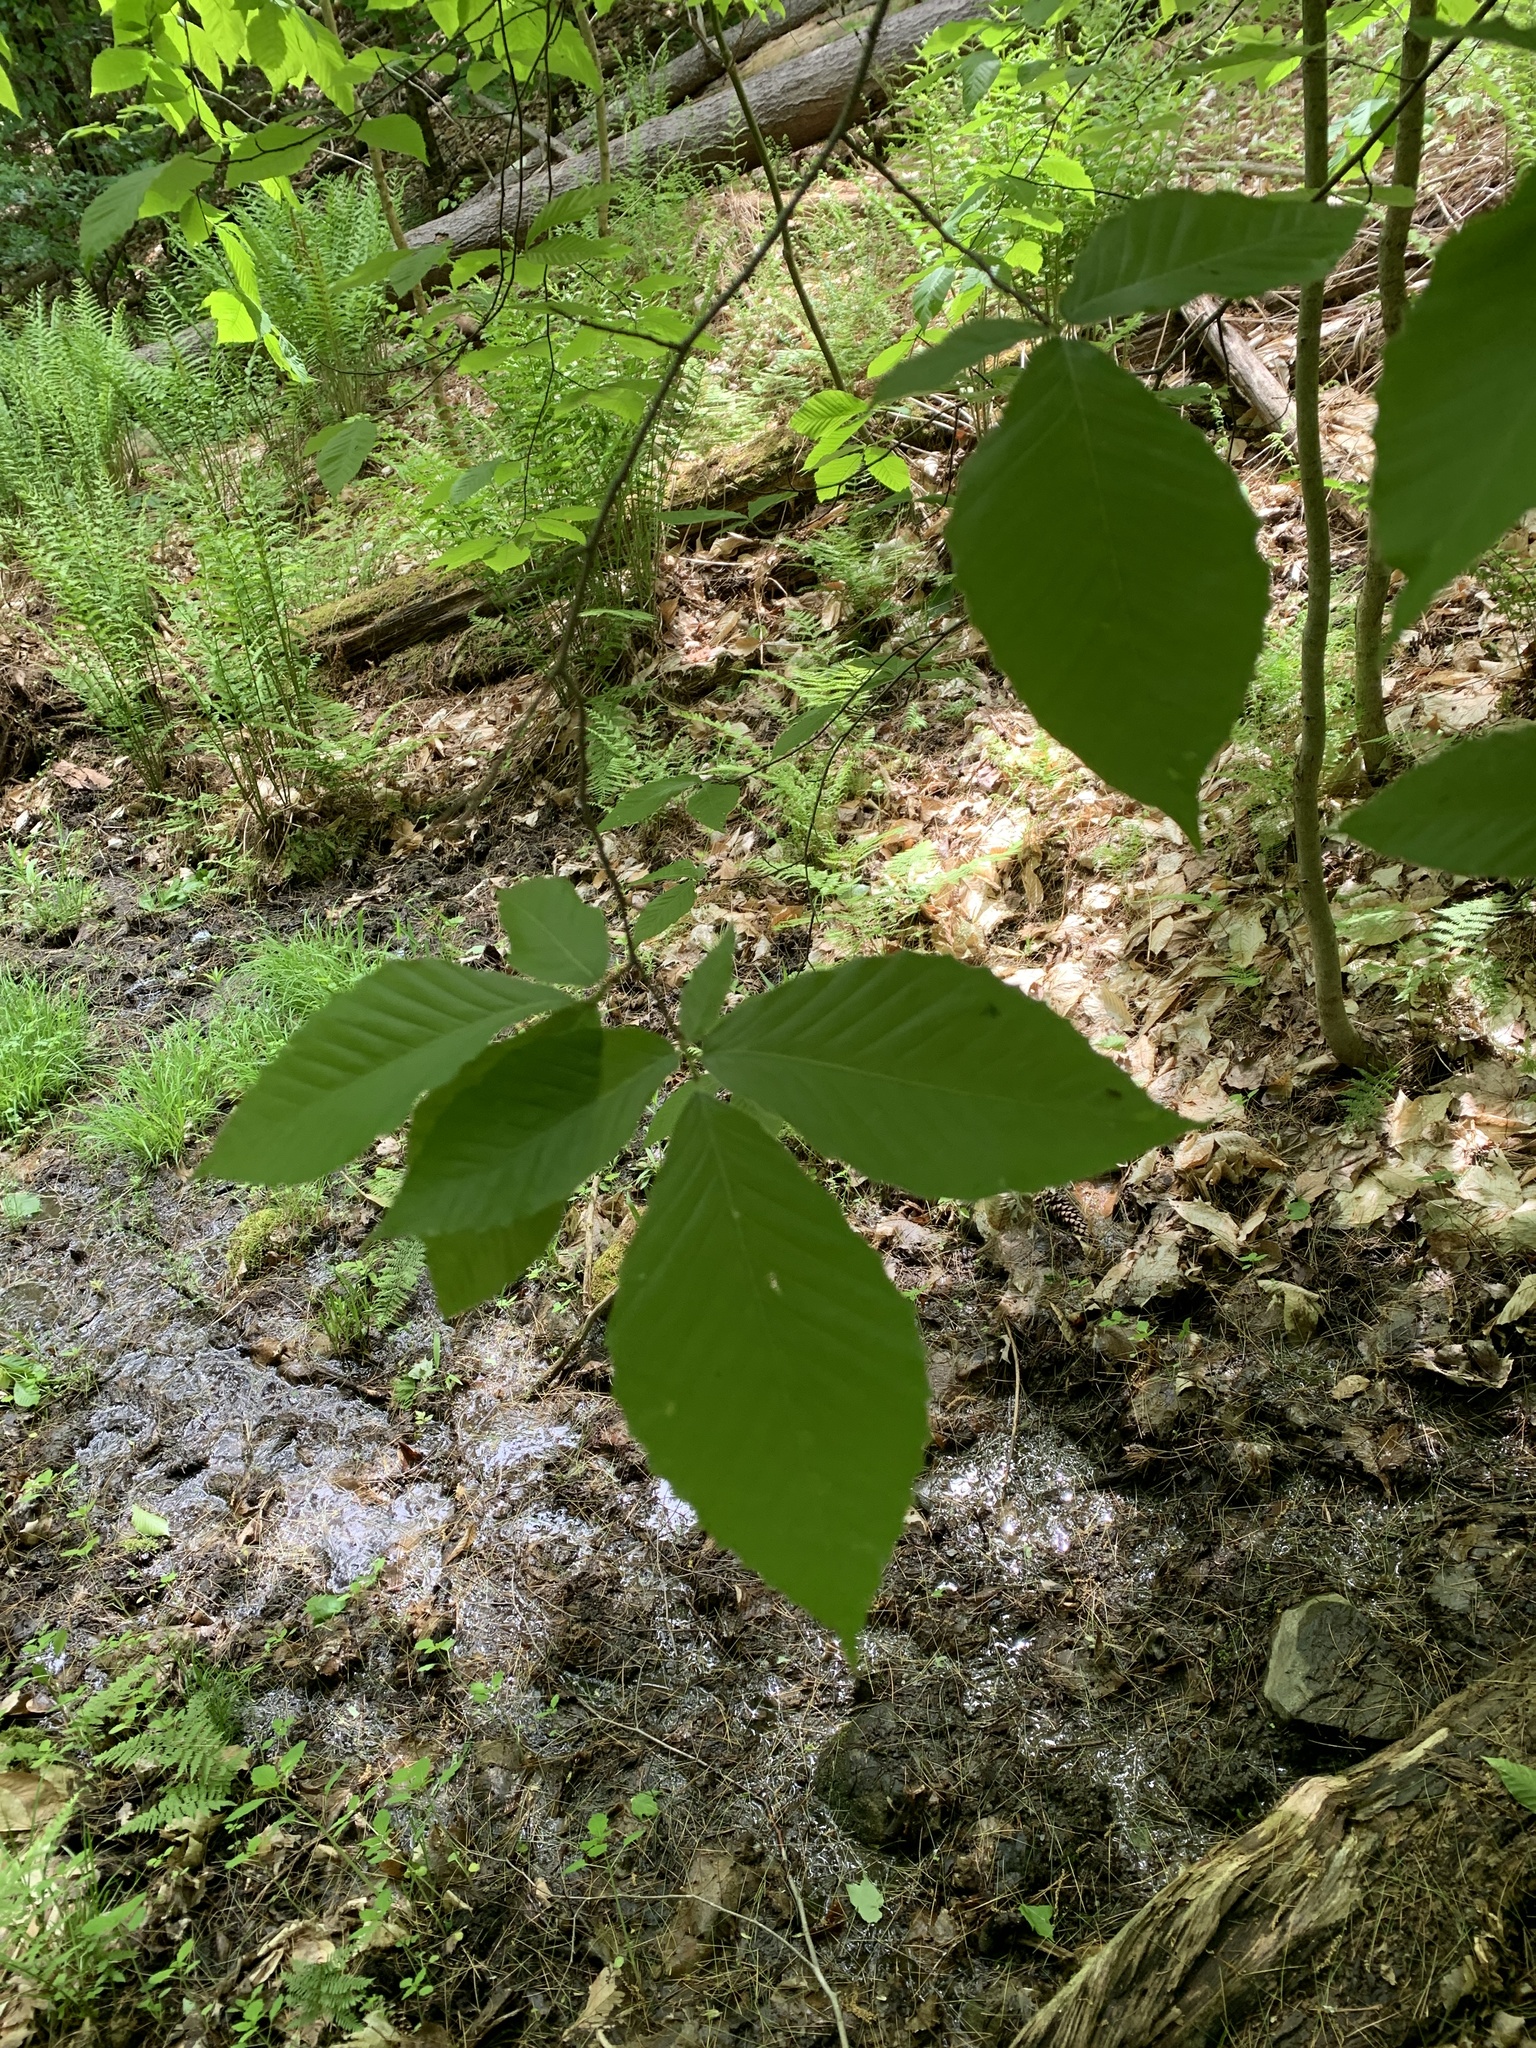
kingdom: Plantae
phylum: Tracheophyta
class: Magnoliopsida
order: Fagales
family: Fagaceae
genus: Fagus
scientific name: Fagus grandifolia
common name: American beech
